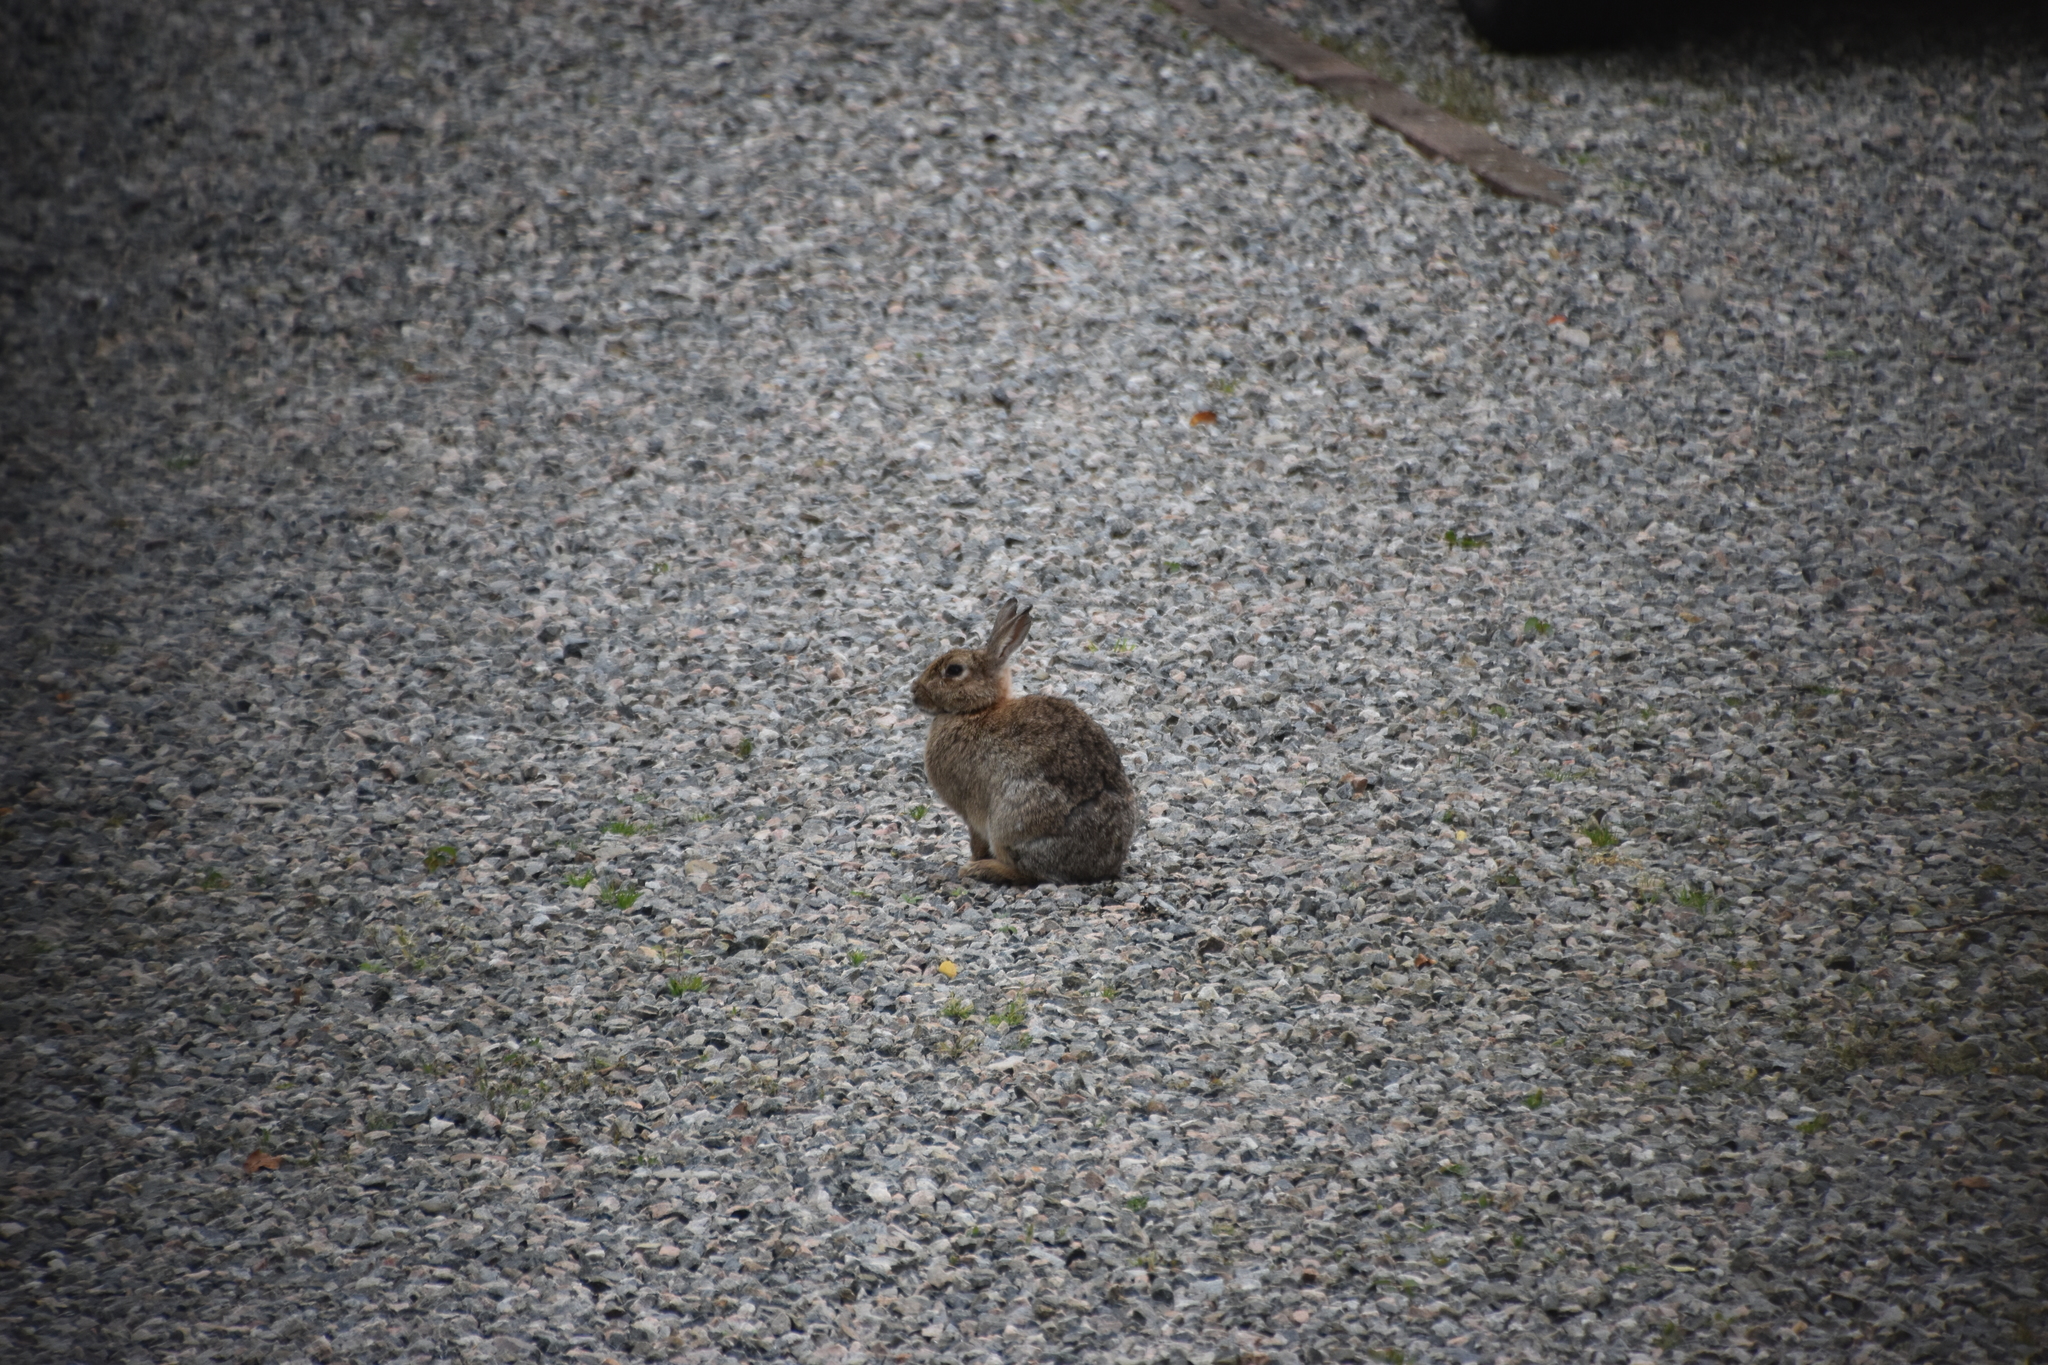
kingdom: Animalia
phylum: Chordata
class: Mammalia
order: Lagomorpha
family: Leporidae
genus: Oryctolagus
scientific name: Oryctolagus cuniculus
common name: European rabbit
